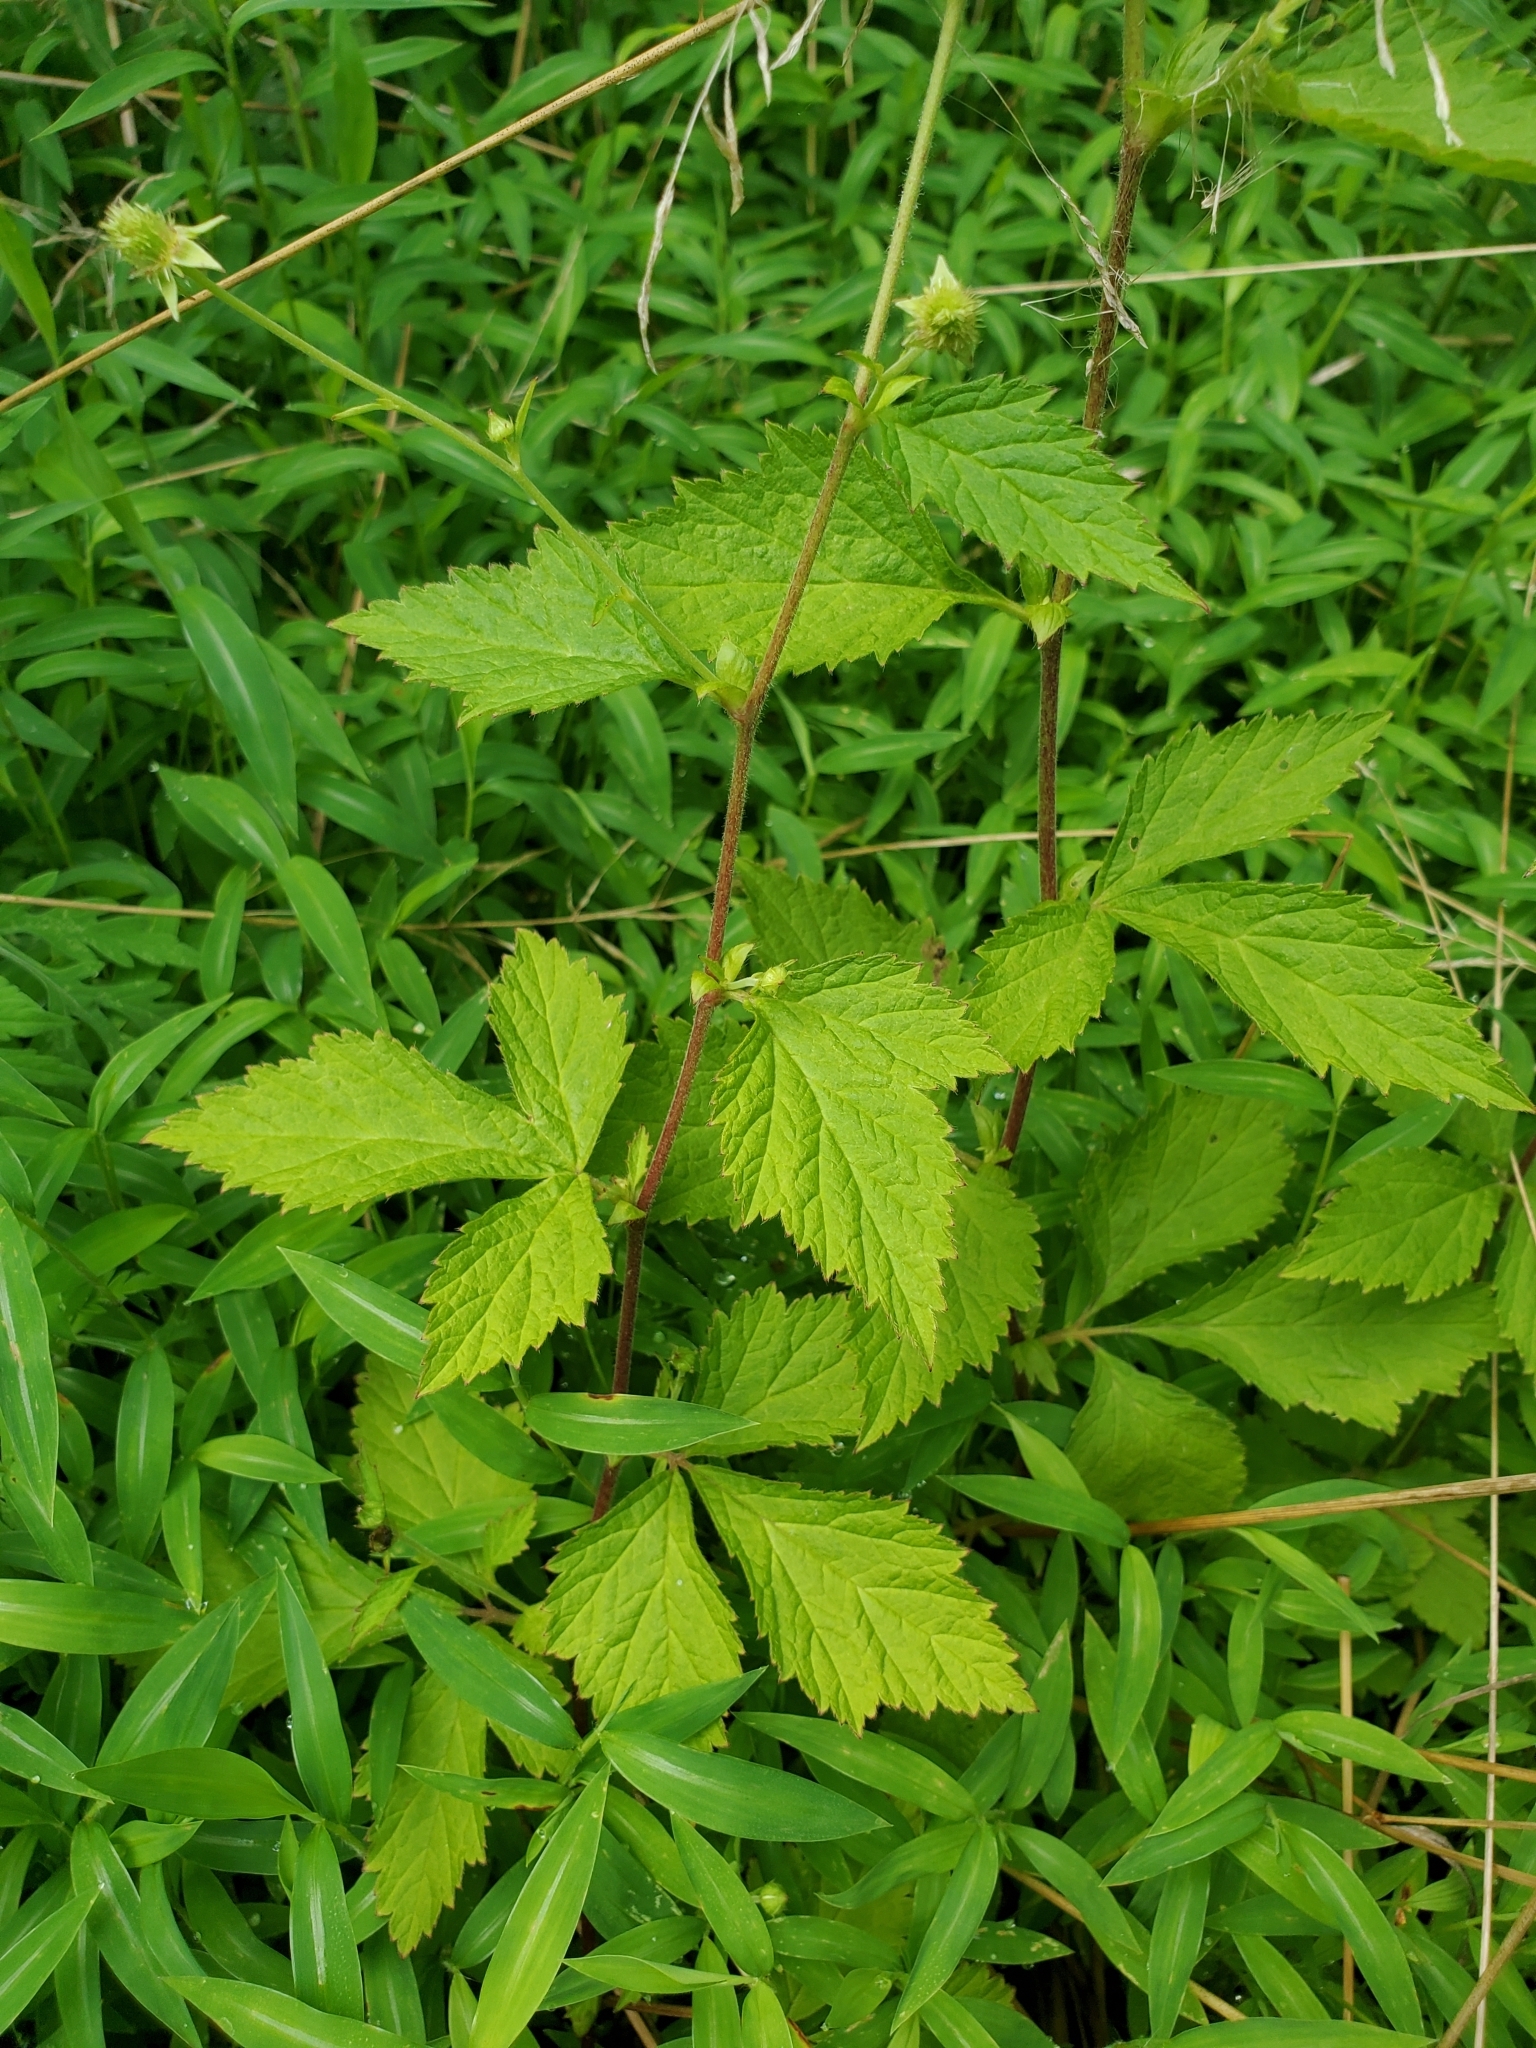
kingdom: Plantae
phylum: Tracheophyta
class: Magnoliopsida
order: Rosales
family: Rosaceae
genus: Geum
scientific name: Geum canadense
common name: White avens
